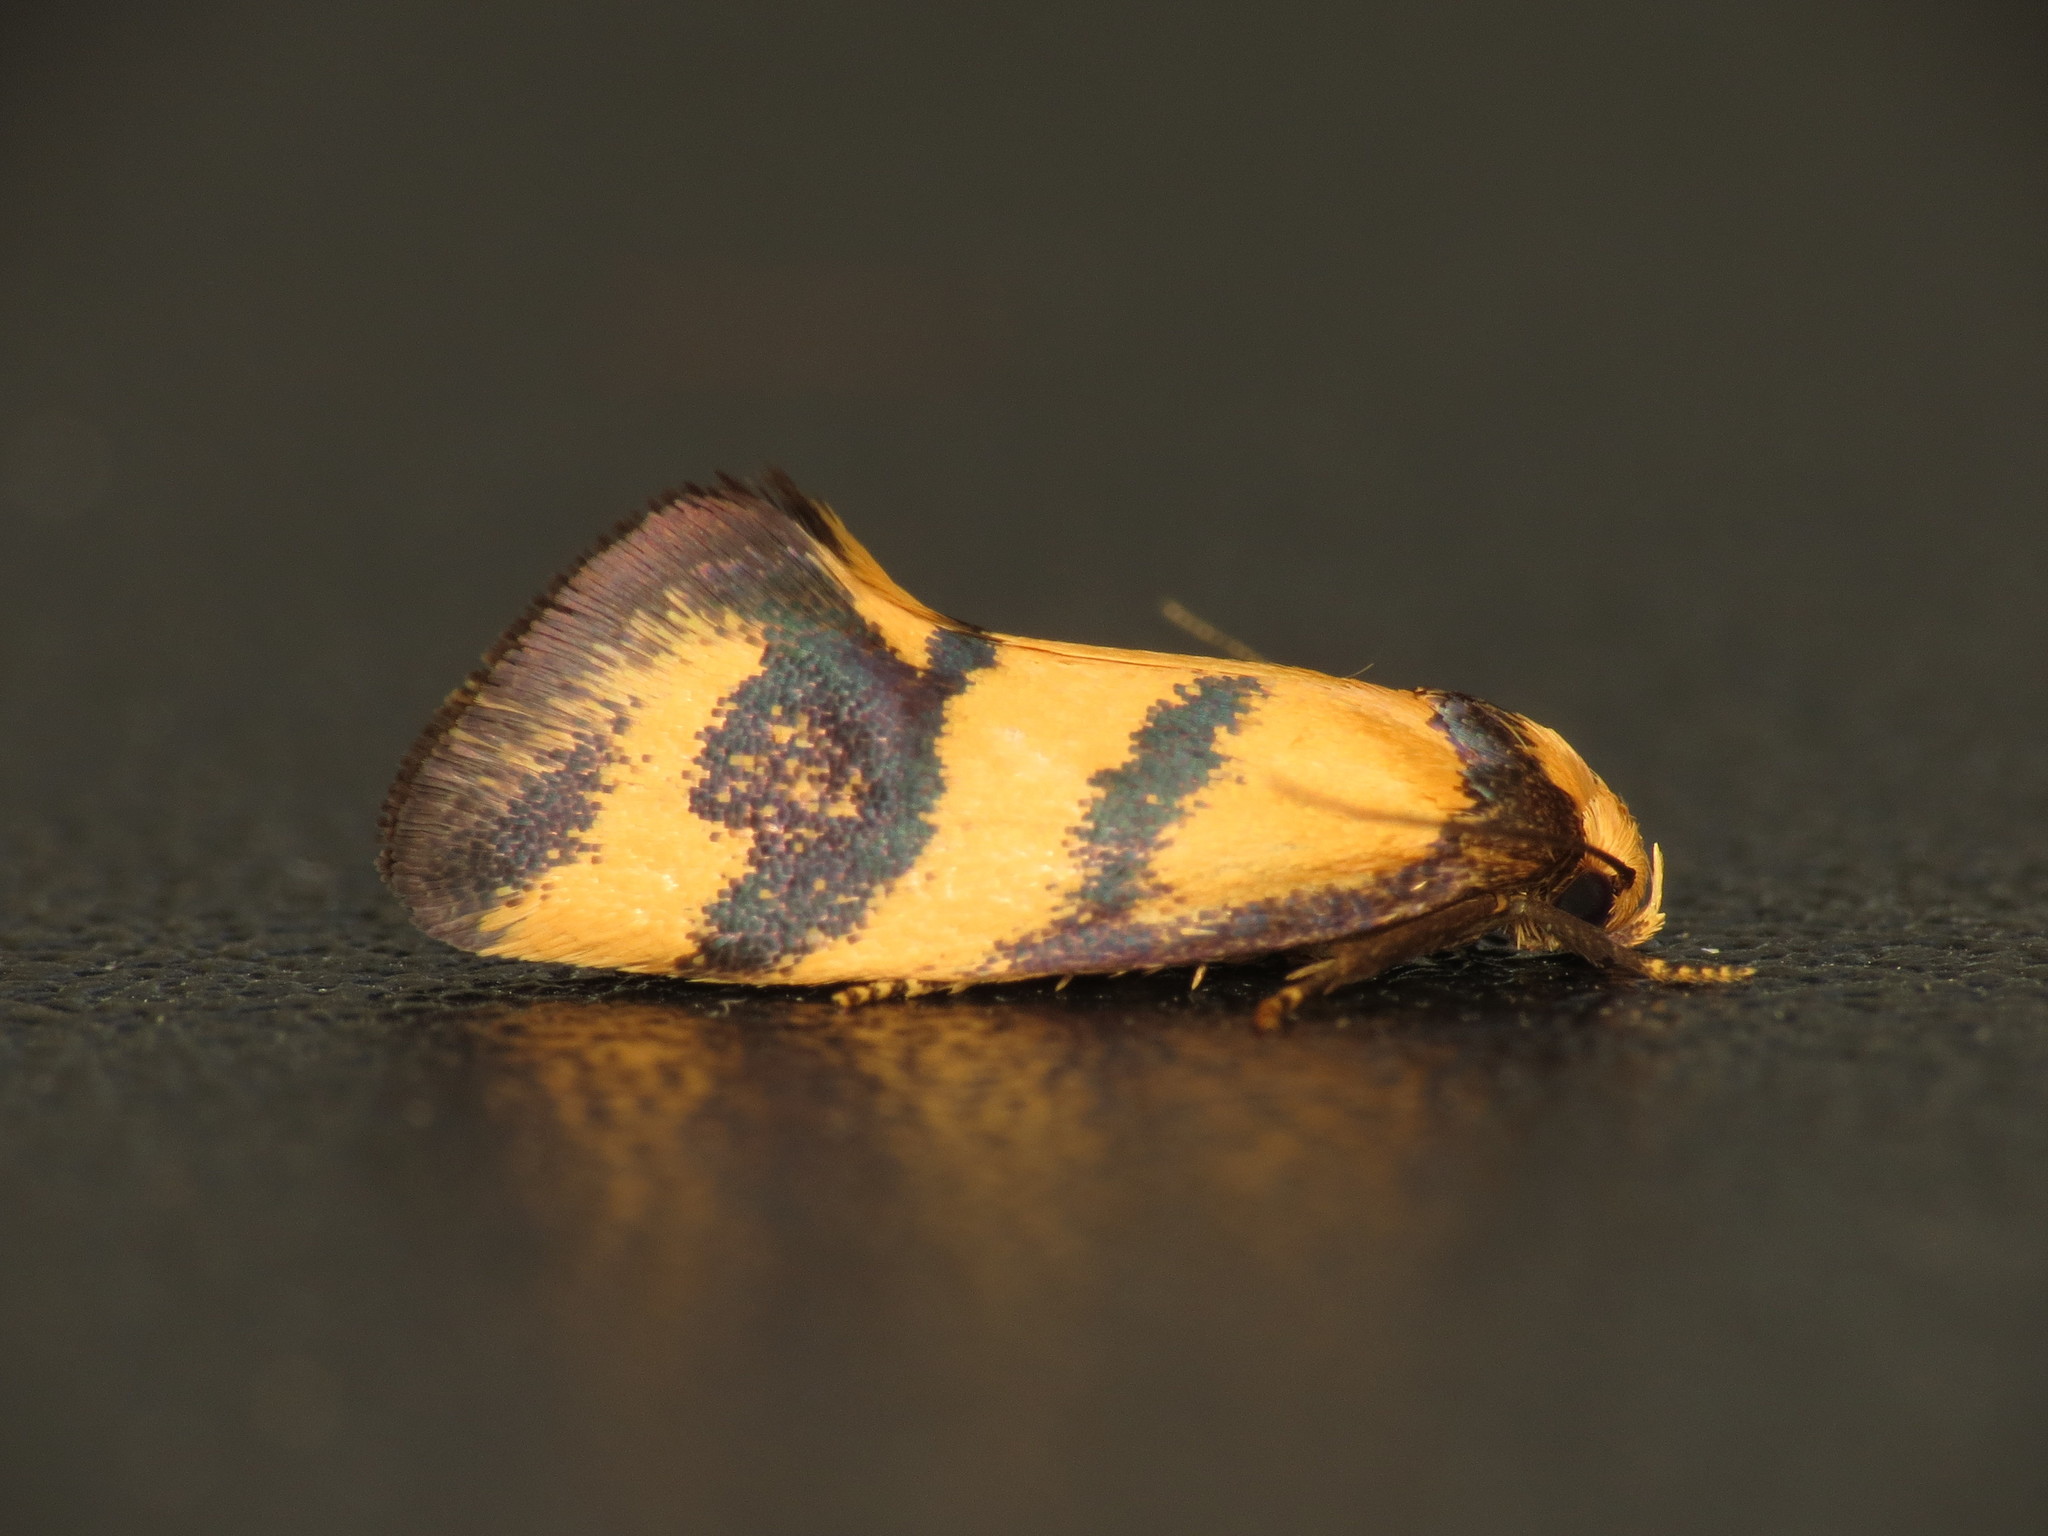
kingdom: Animalia
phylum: Arthropoda
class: Insecta
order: Lepidoptera
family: Oecophoridae
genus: Olbonoma
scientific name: Olbonoma triptycha
